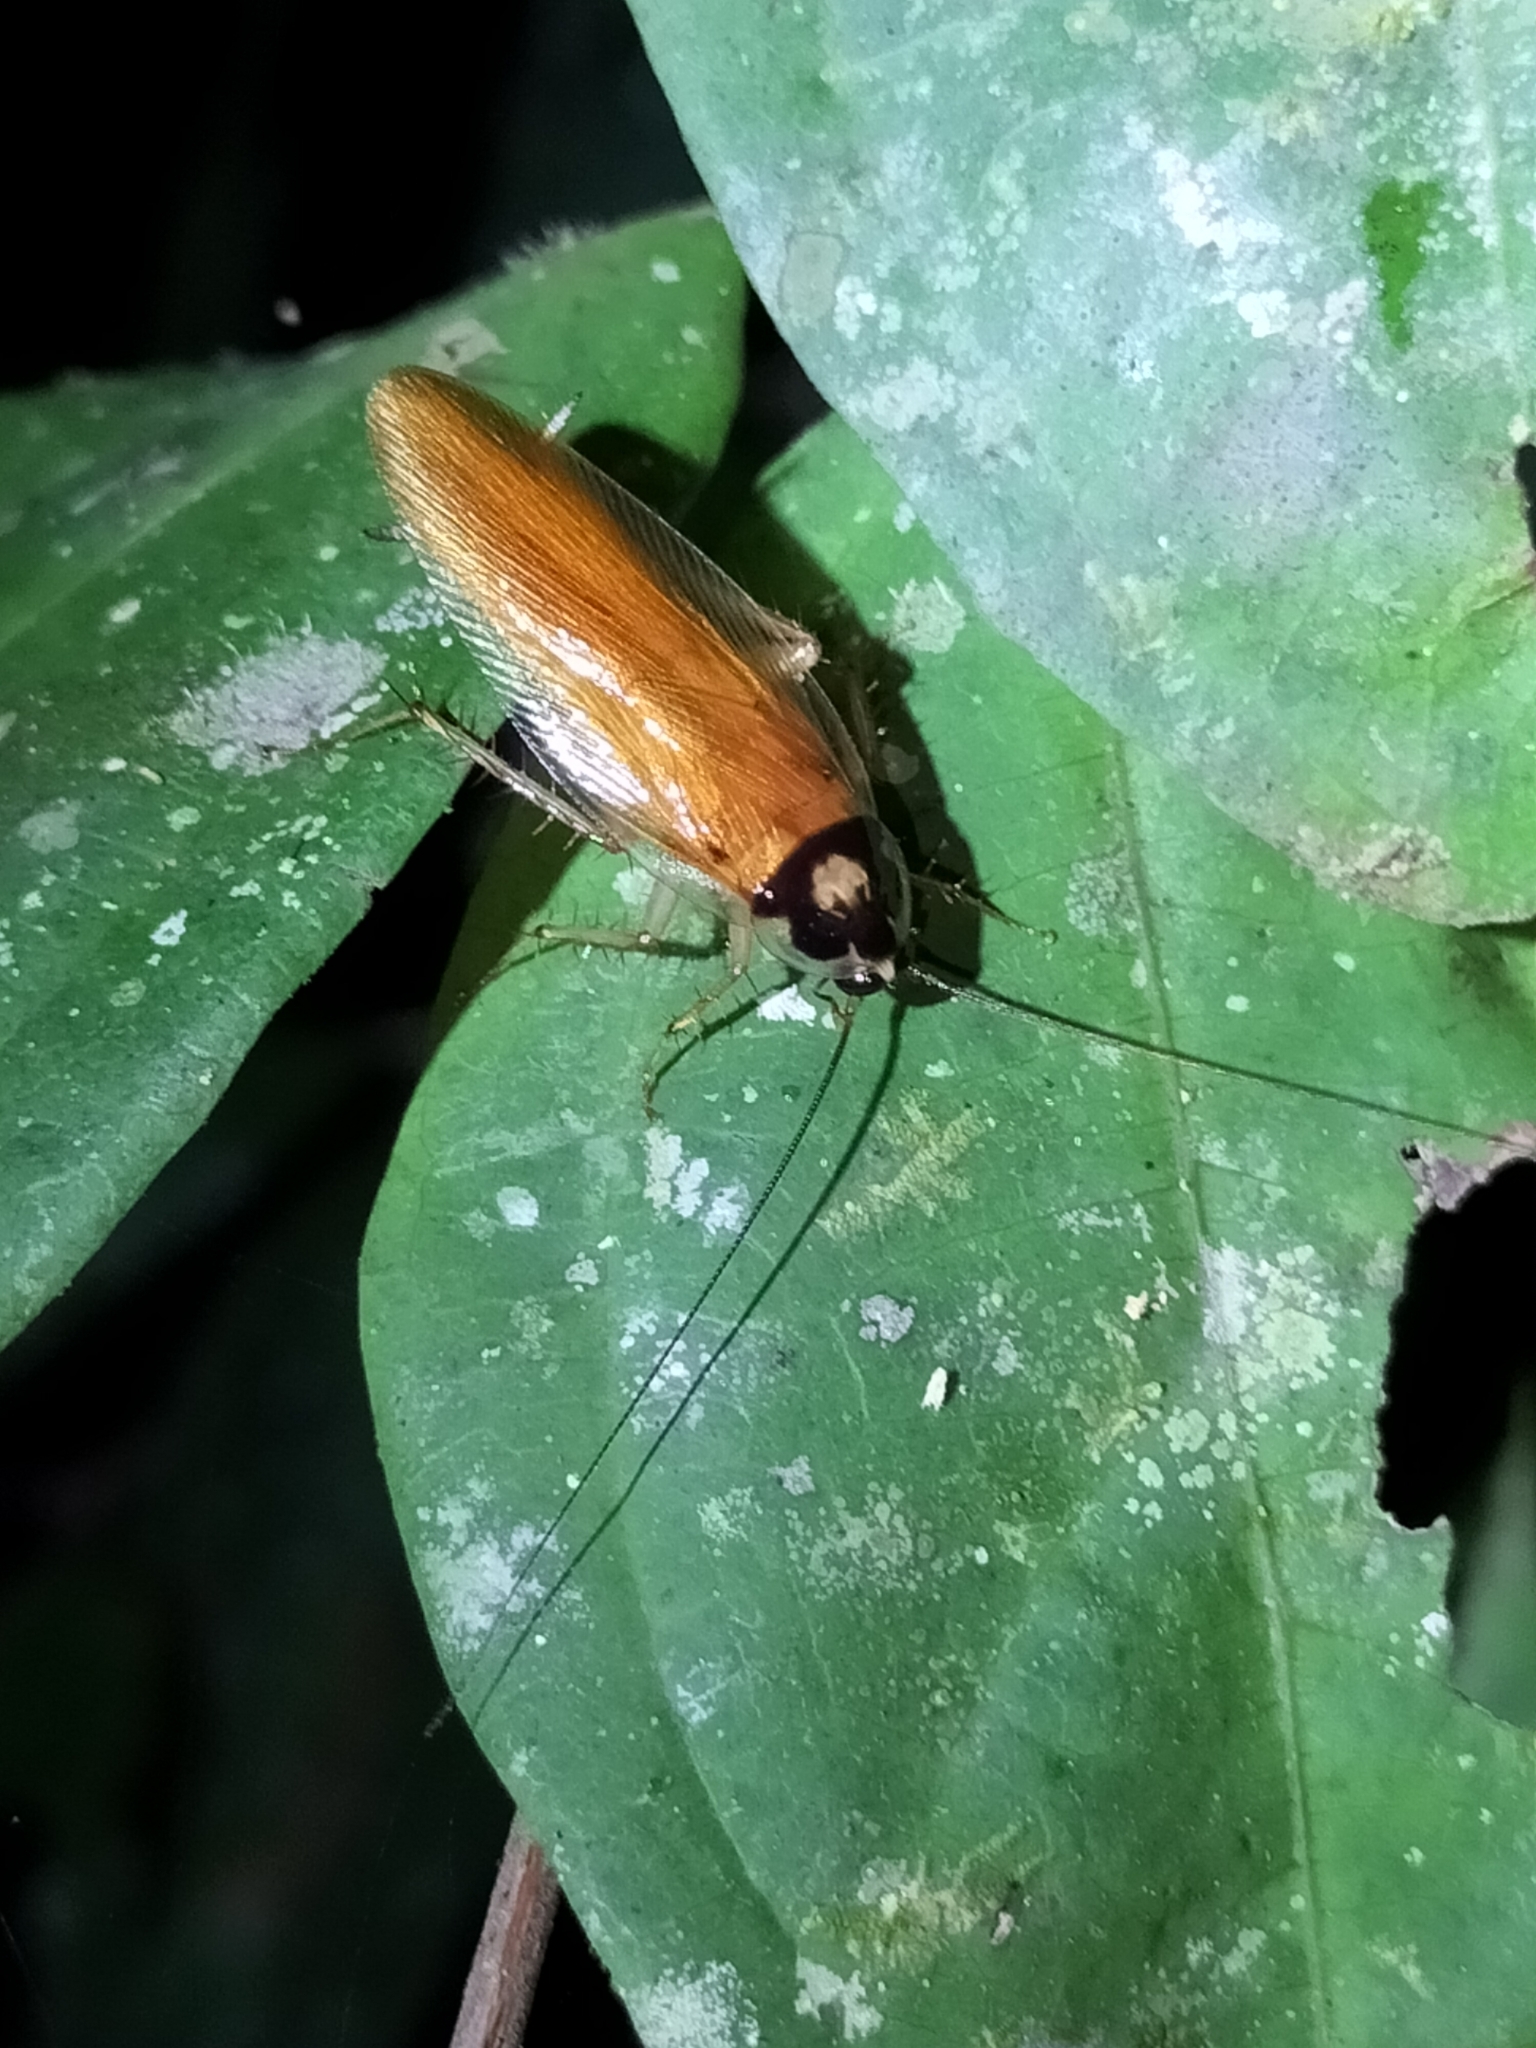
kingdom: Animalia
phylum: Arthropoda
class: Insecta
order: Blattodea
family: Ectobiidae
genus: Johnrehnia
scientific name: Johnrehnia lakebarrina
